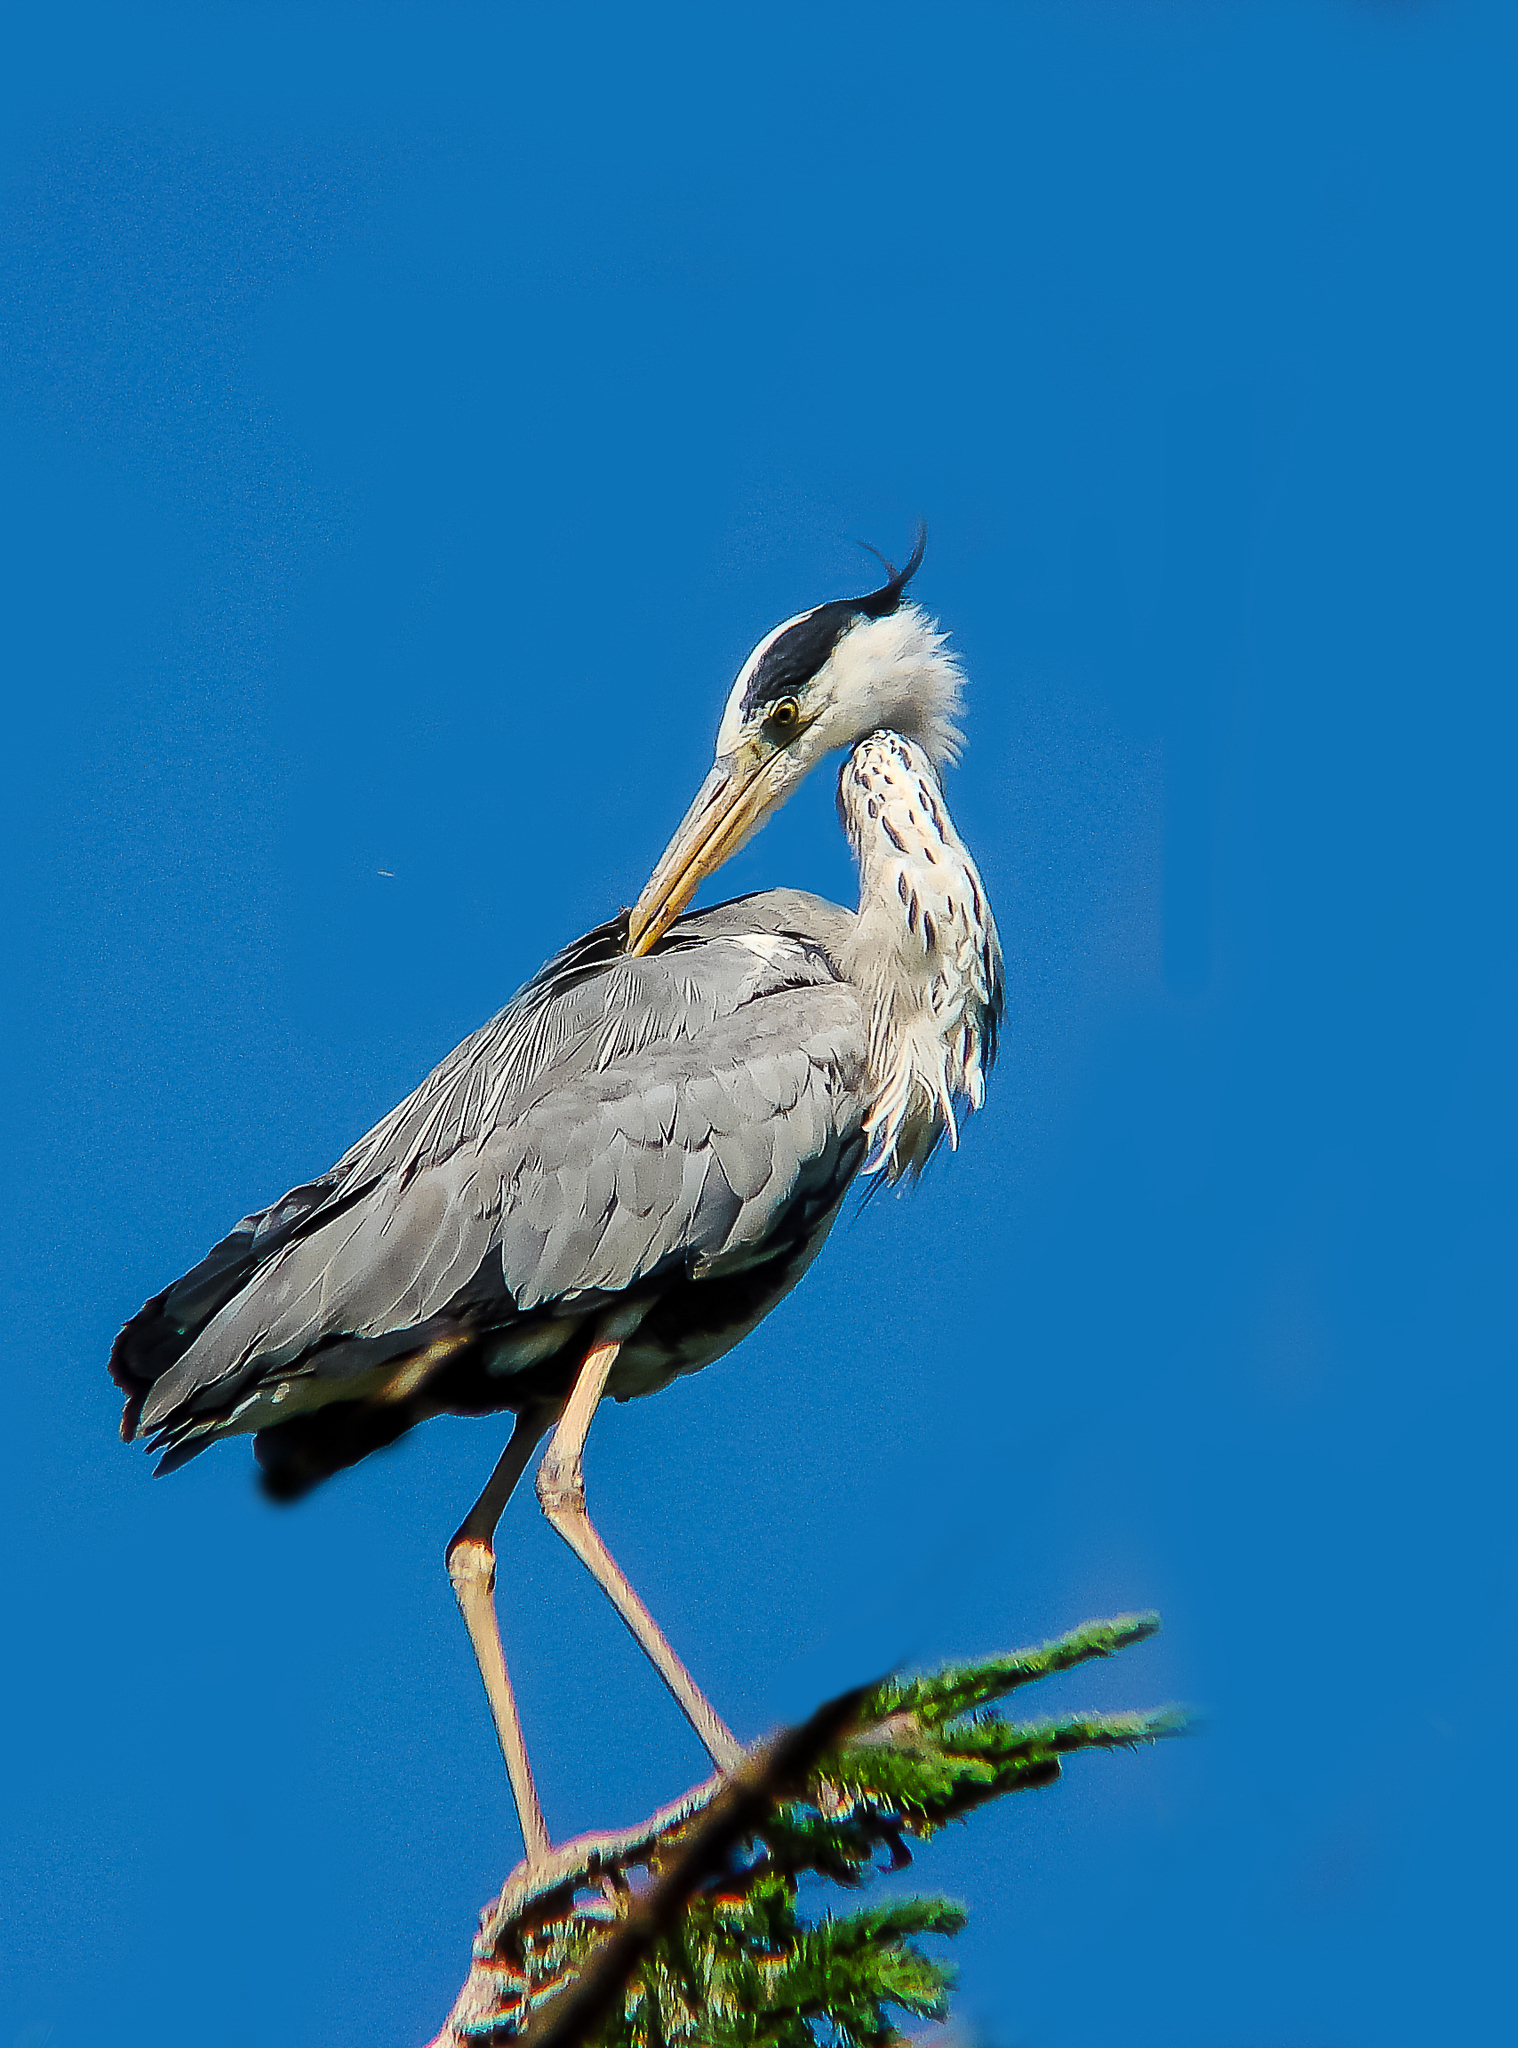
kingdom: Animalia
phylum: Chordata
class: Aves
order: Pelecaniformes
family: Ardeidae
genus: Ardea
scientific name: Ardea cinerea
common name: Grey heron
